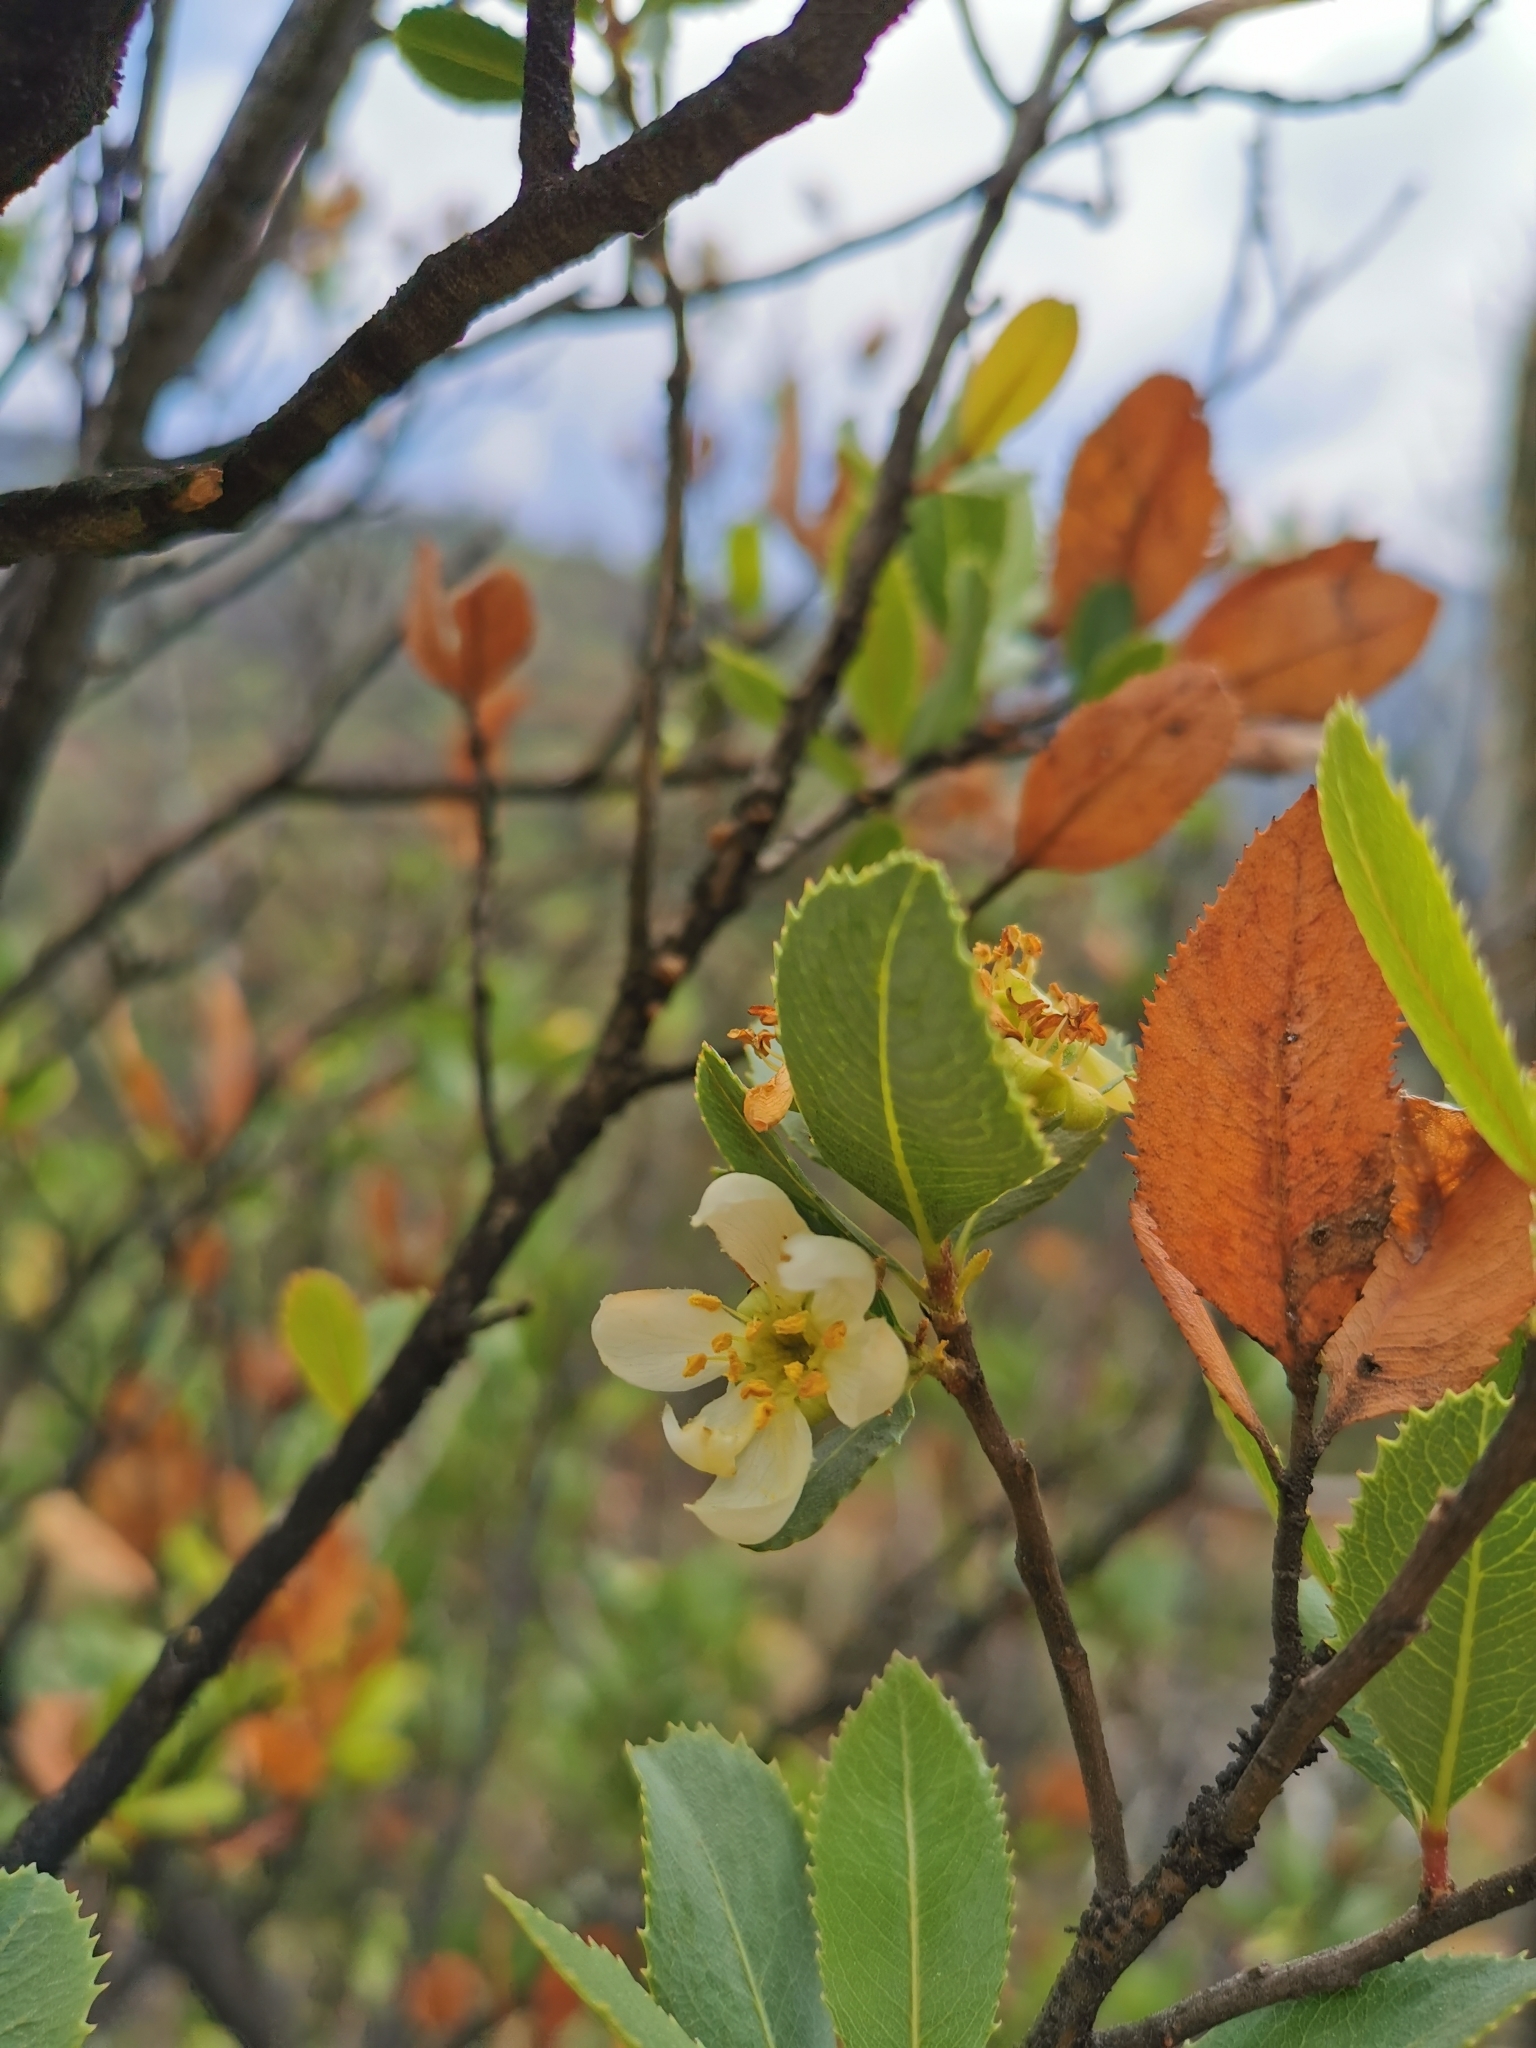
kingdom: Plantae
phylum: Tracheophyta
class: Magnoliopsida
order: Rosales
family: Rosaceae
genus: Kageneckia
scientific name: Kageneckia oblonga
